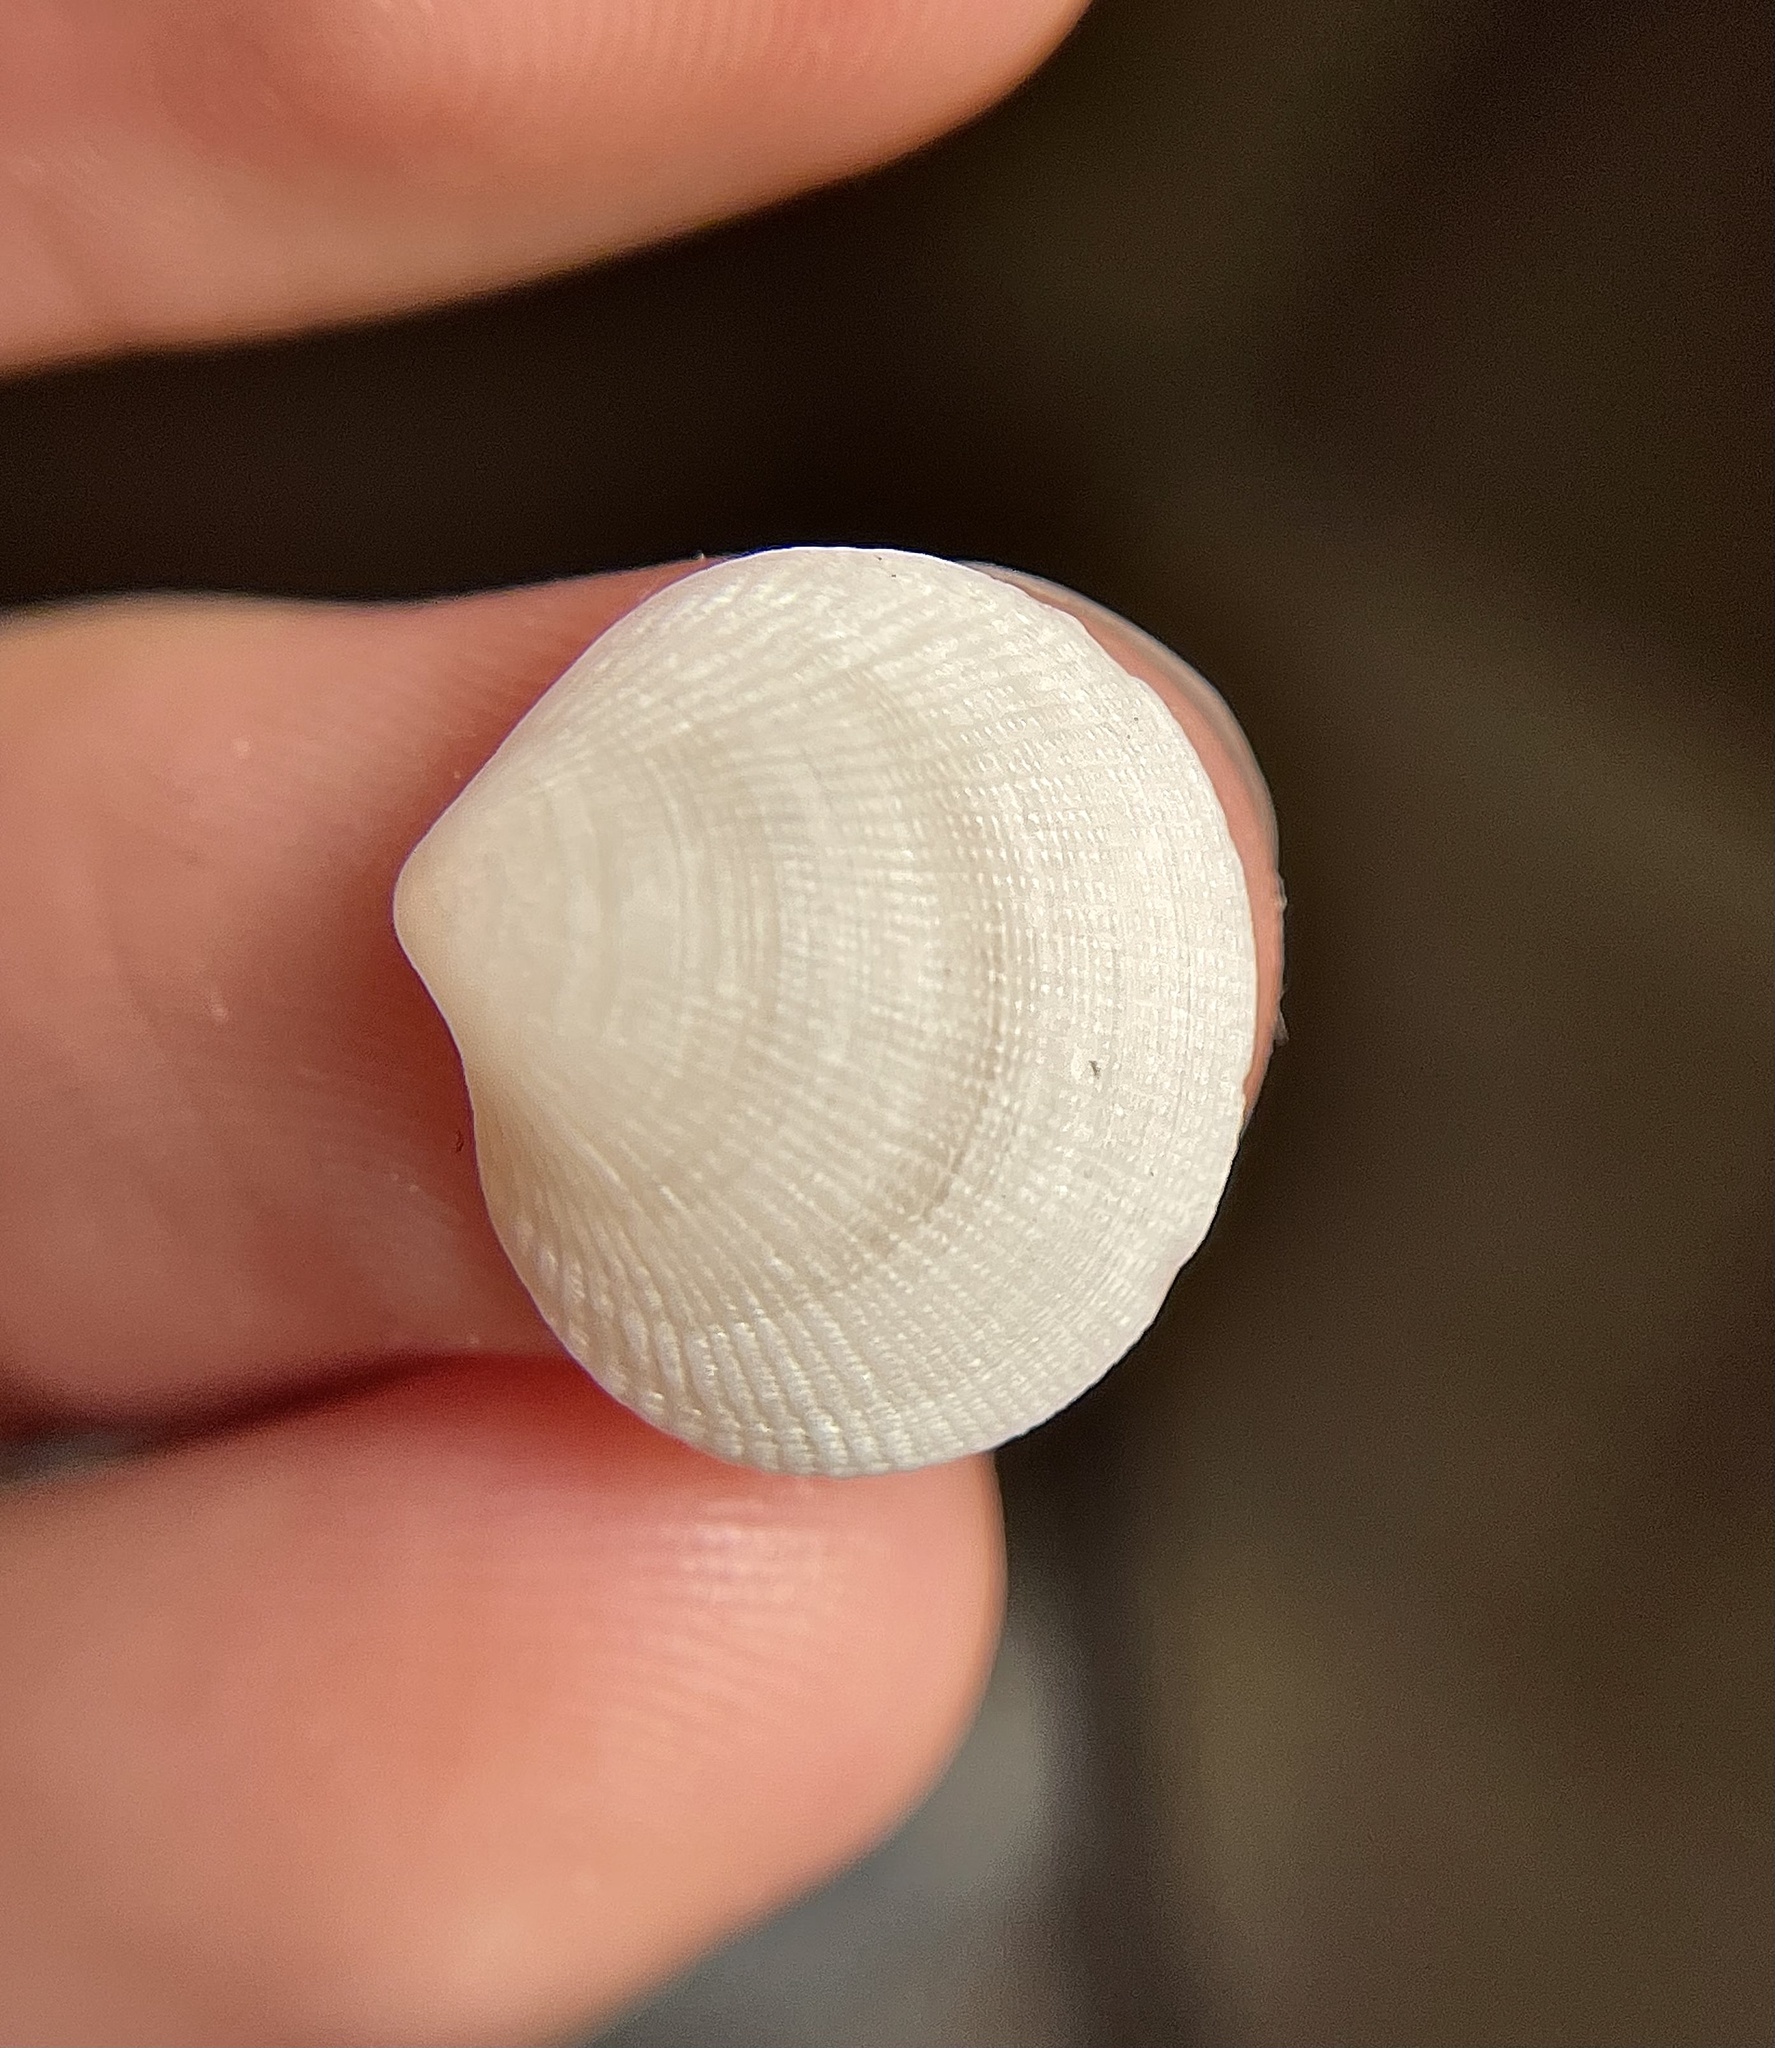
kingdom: Animalia
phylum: Mollusca
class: Bivalvia
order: Lucinida
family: Lucinidae
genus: Ctena
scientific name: Ctena decussata
